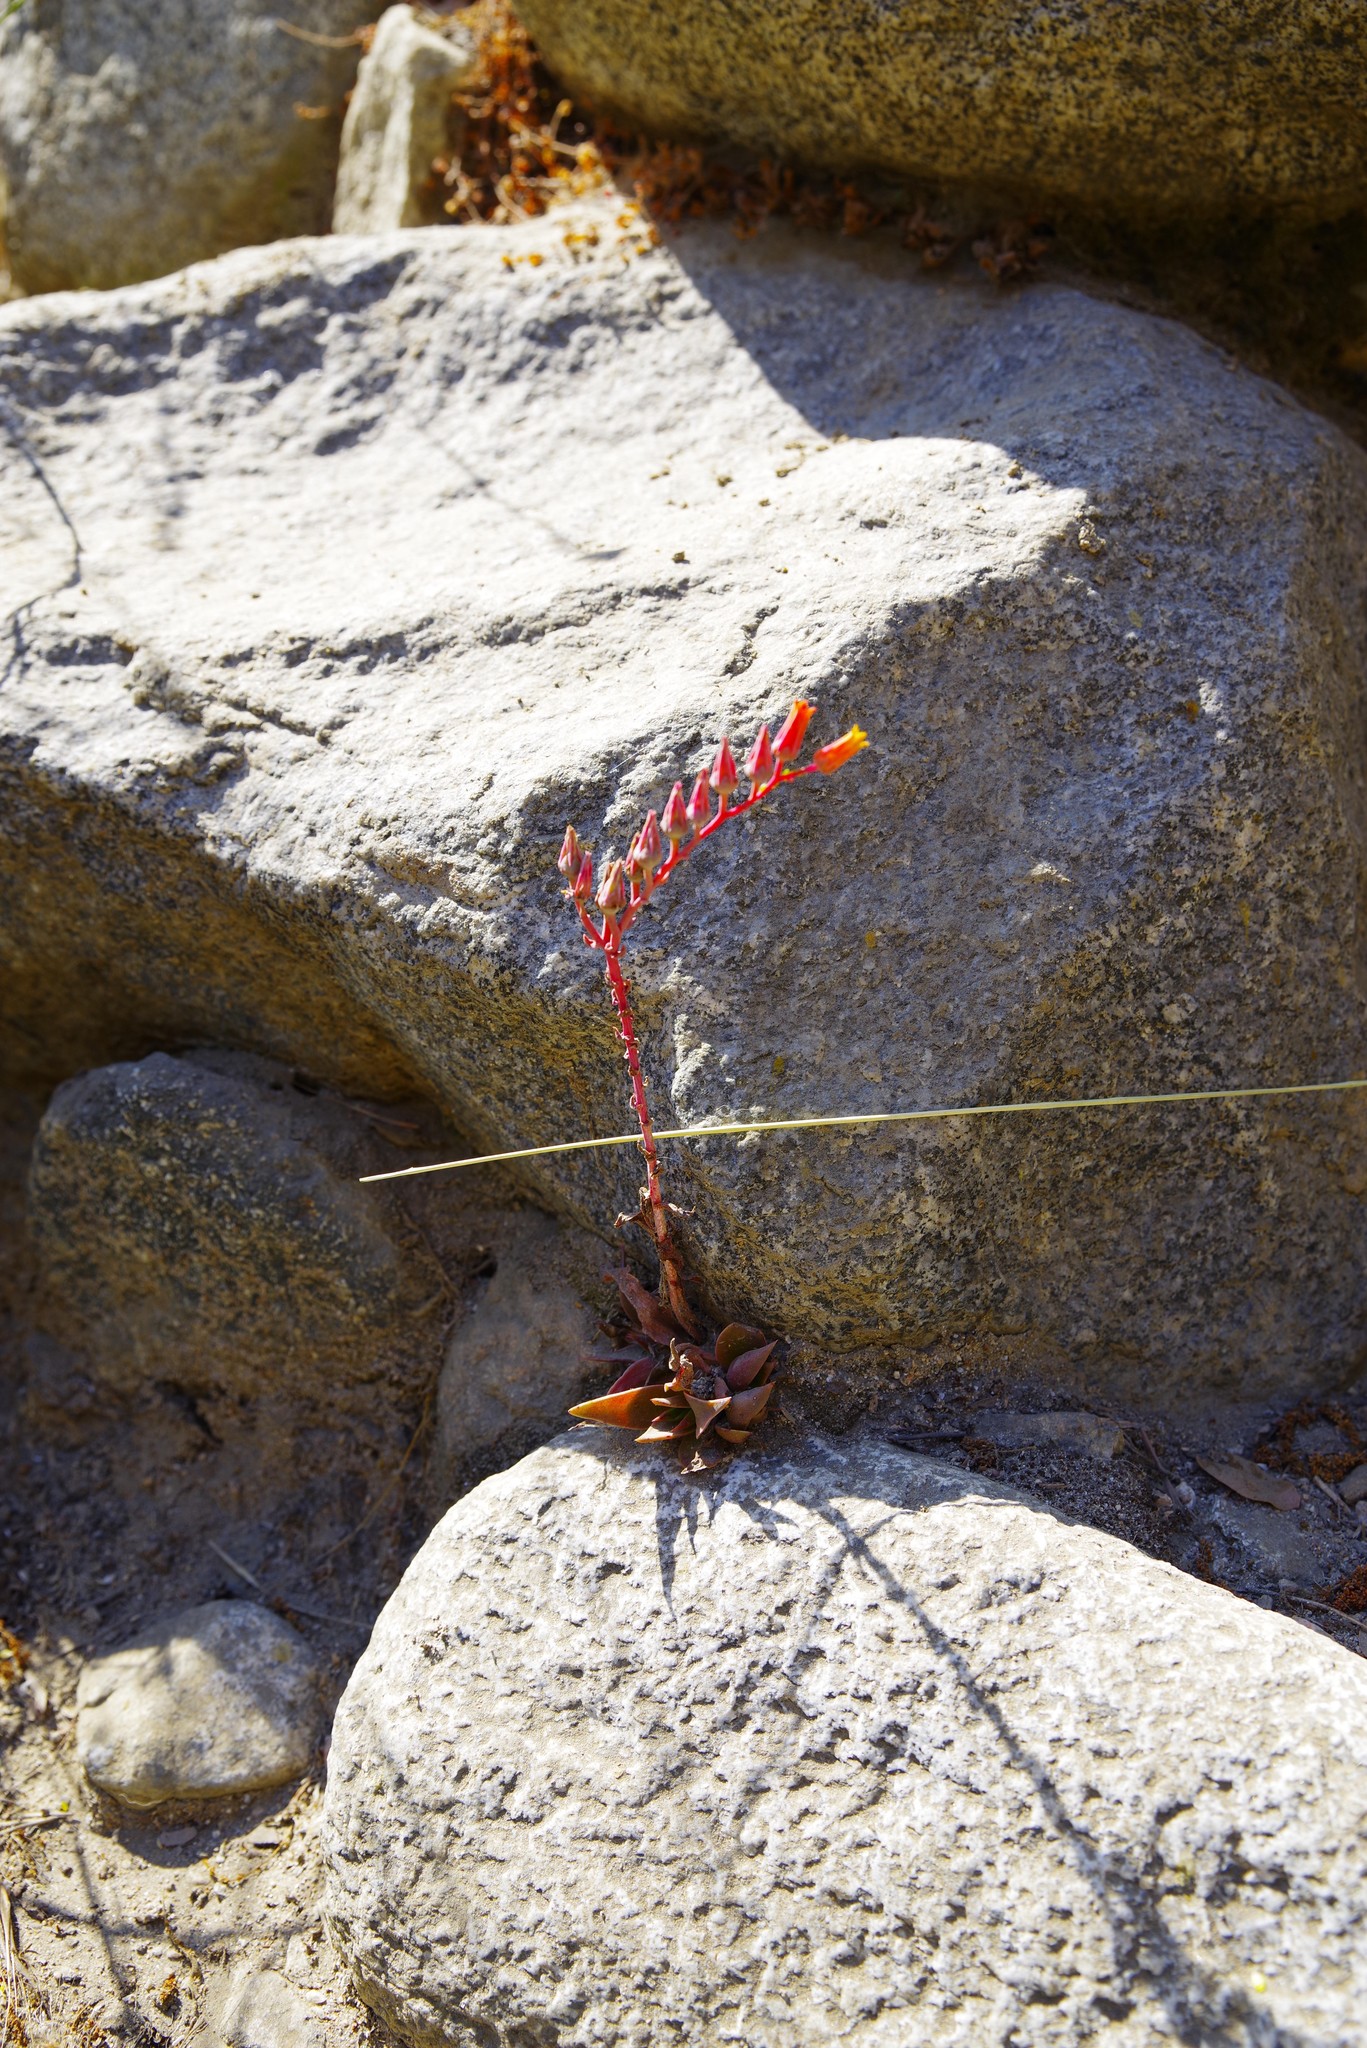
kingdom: Plantae
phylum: Tracheophyta
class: Magnoliopsida
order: Saxifragales
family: Crassulaceae
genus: Dudleya
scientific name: Dudleya lanceolata
